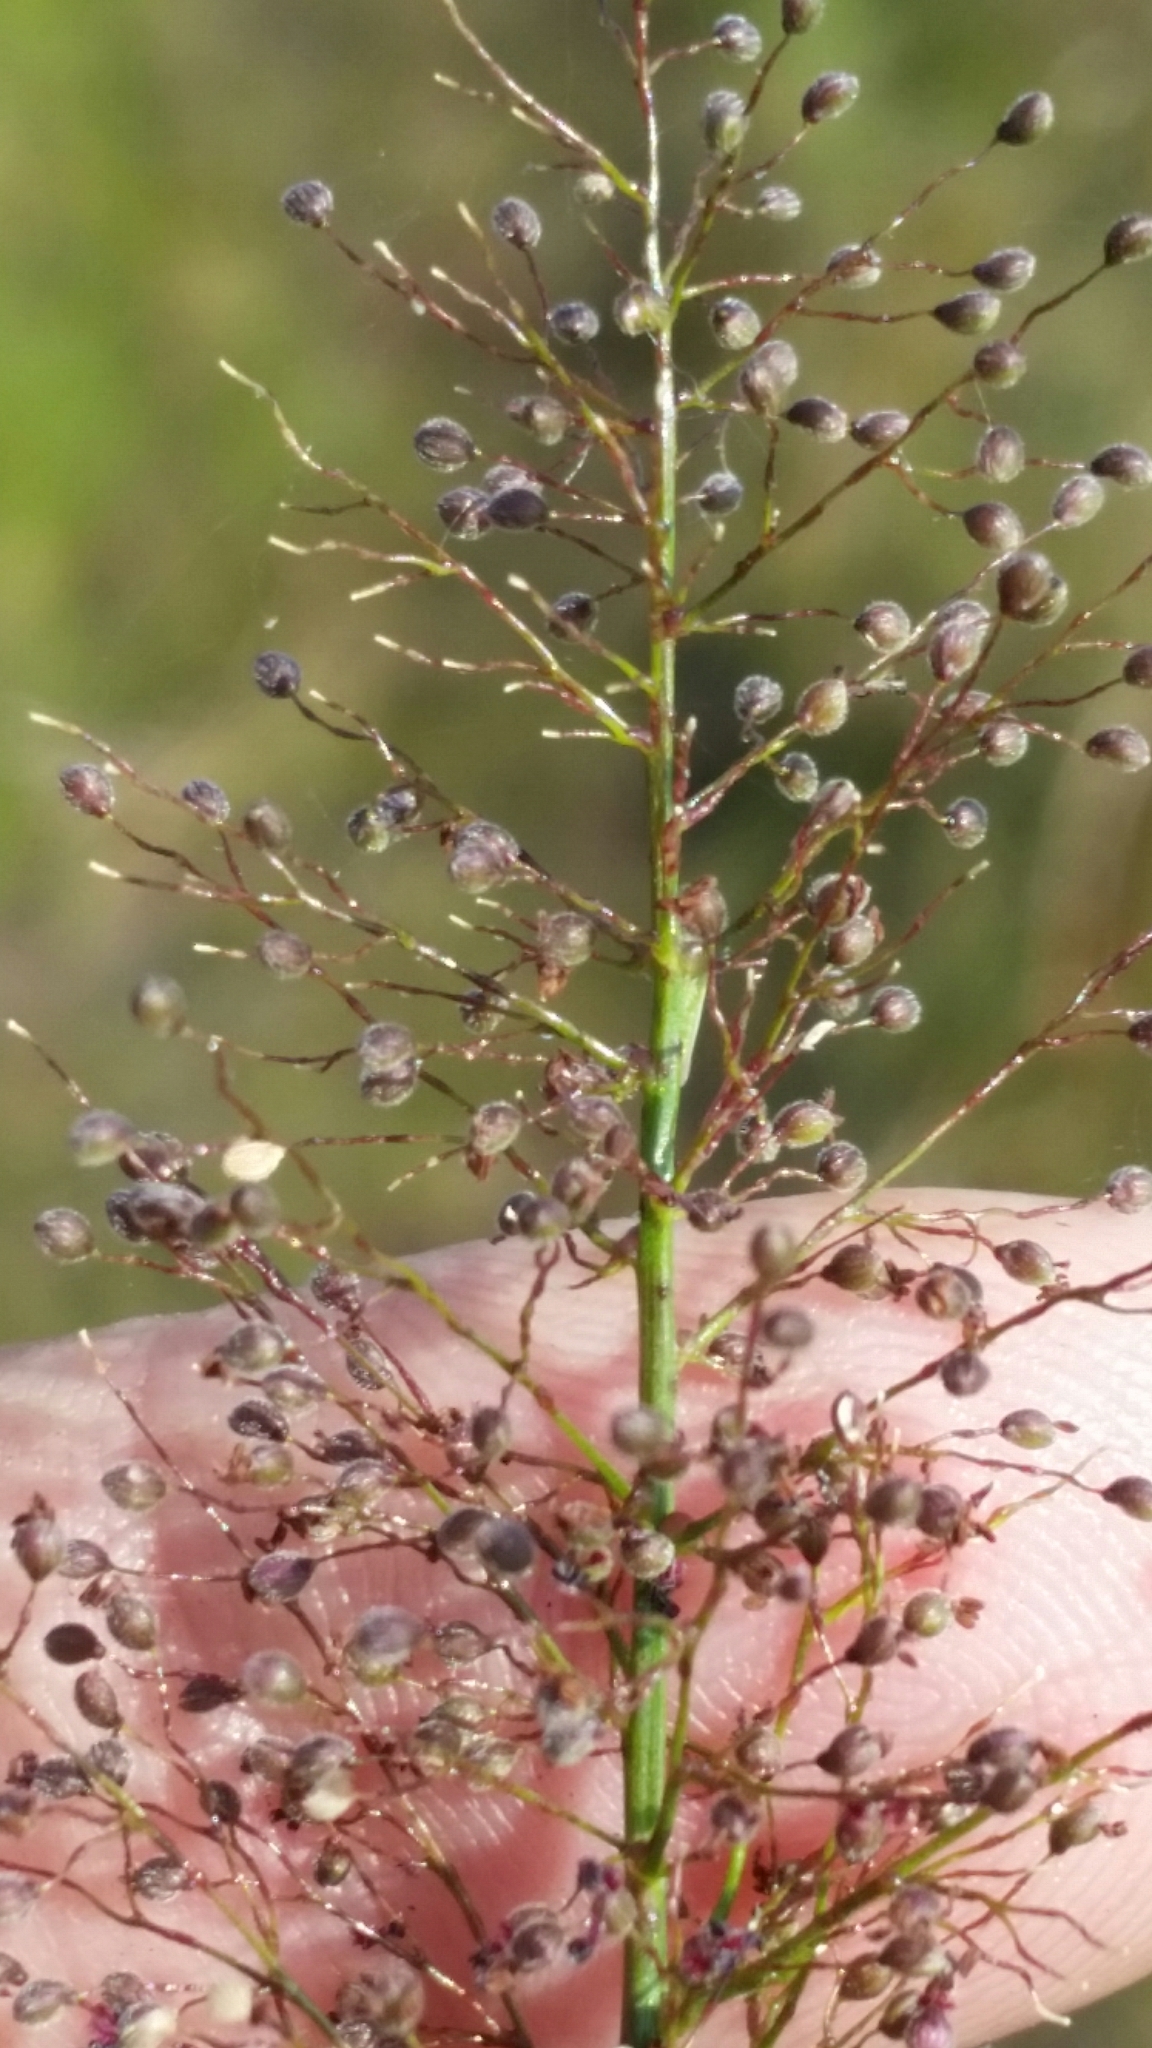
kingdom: Plantae
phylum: Tracheophyta
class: Liliopsida
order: Poales
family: Poaceae
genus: Dichanthelium
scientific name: Dichanthelium erectifolium
